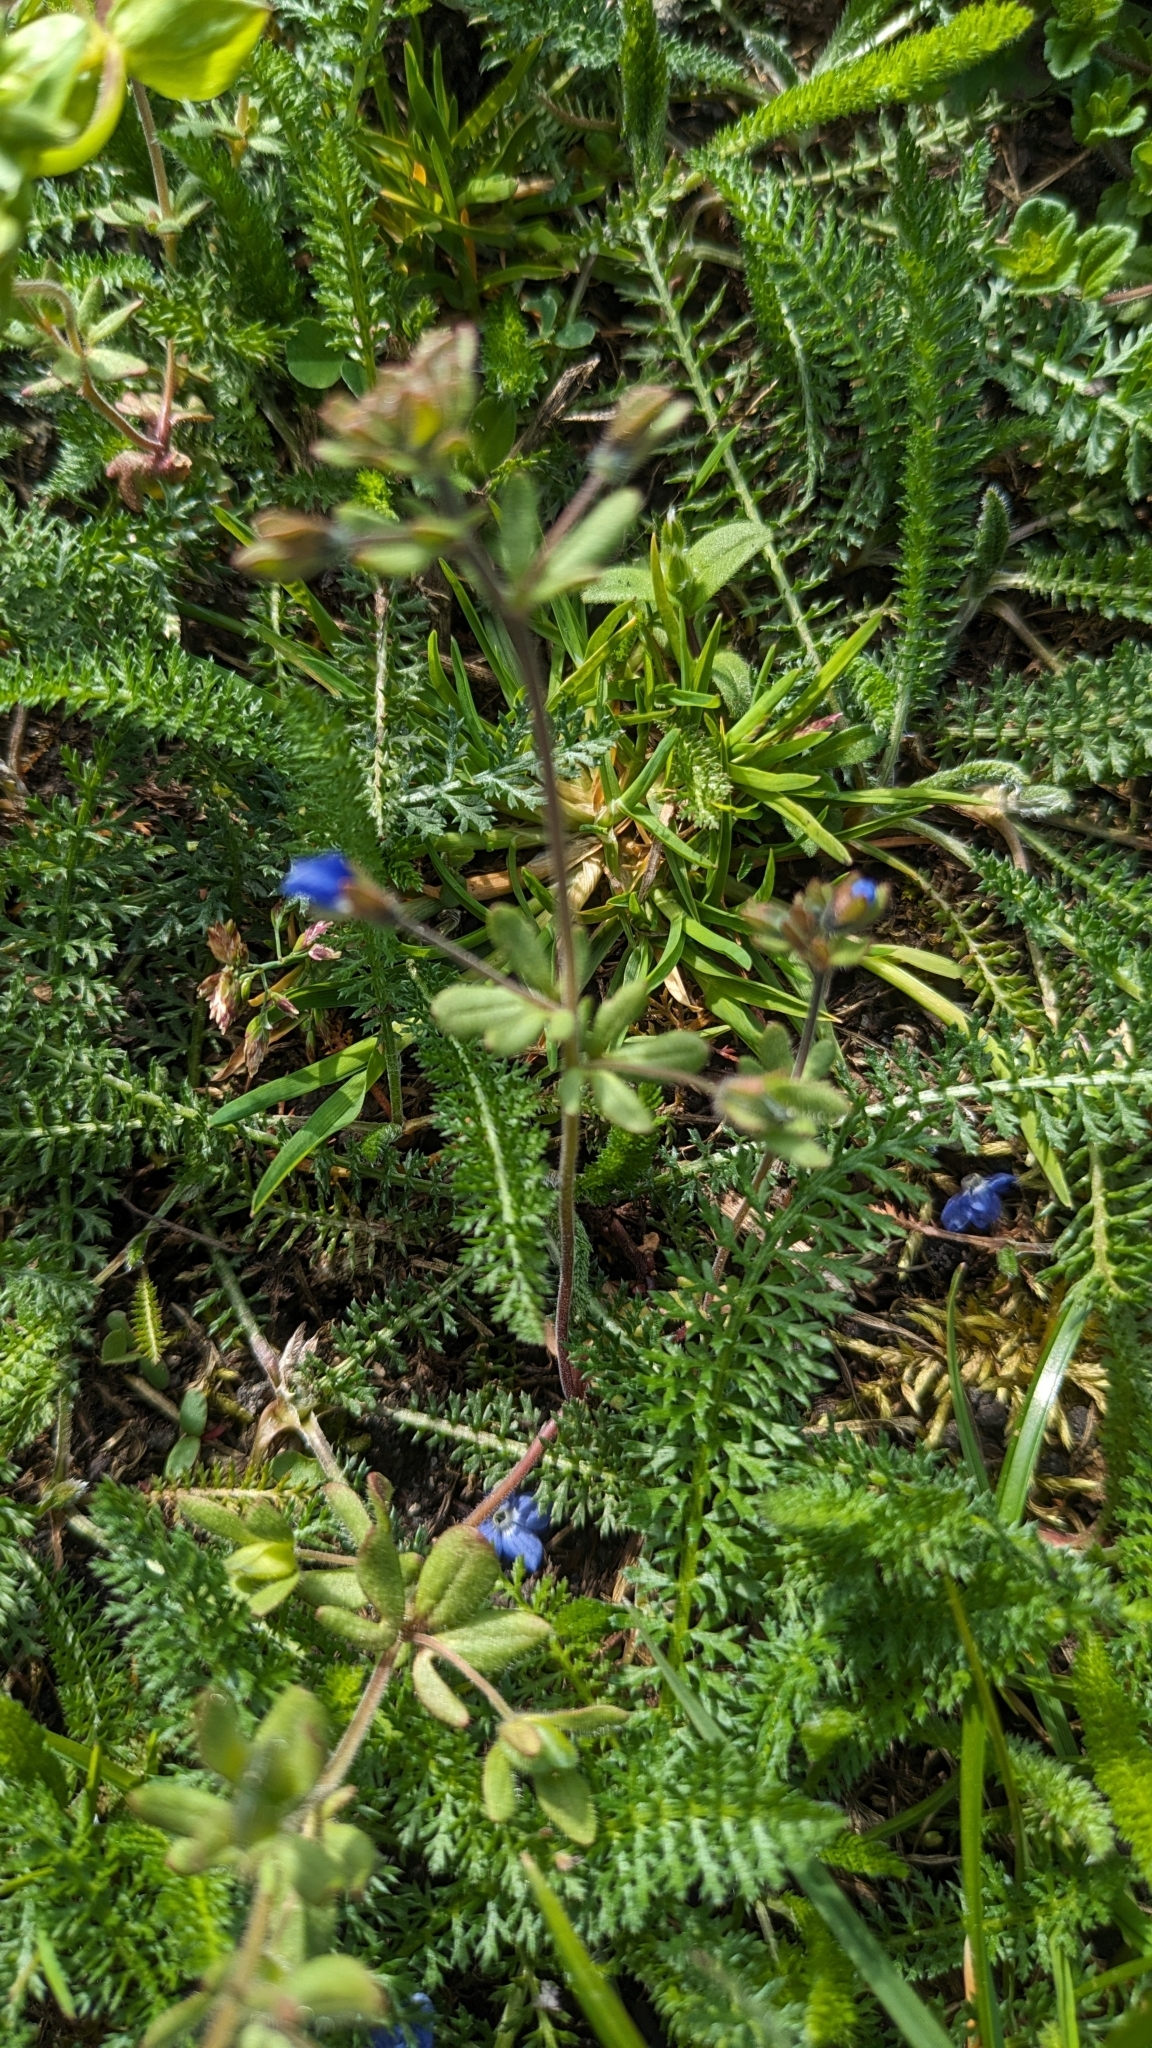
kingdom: Plantae
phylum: Tracheophyta
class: Magnoliopsida
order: Lamiales
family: Plantaginaceae
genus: Veronica
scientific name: Veronica triphyllos
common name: Fingered speedwell
